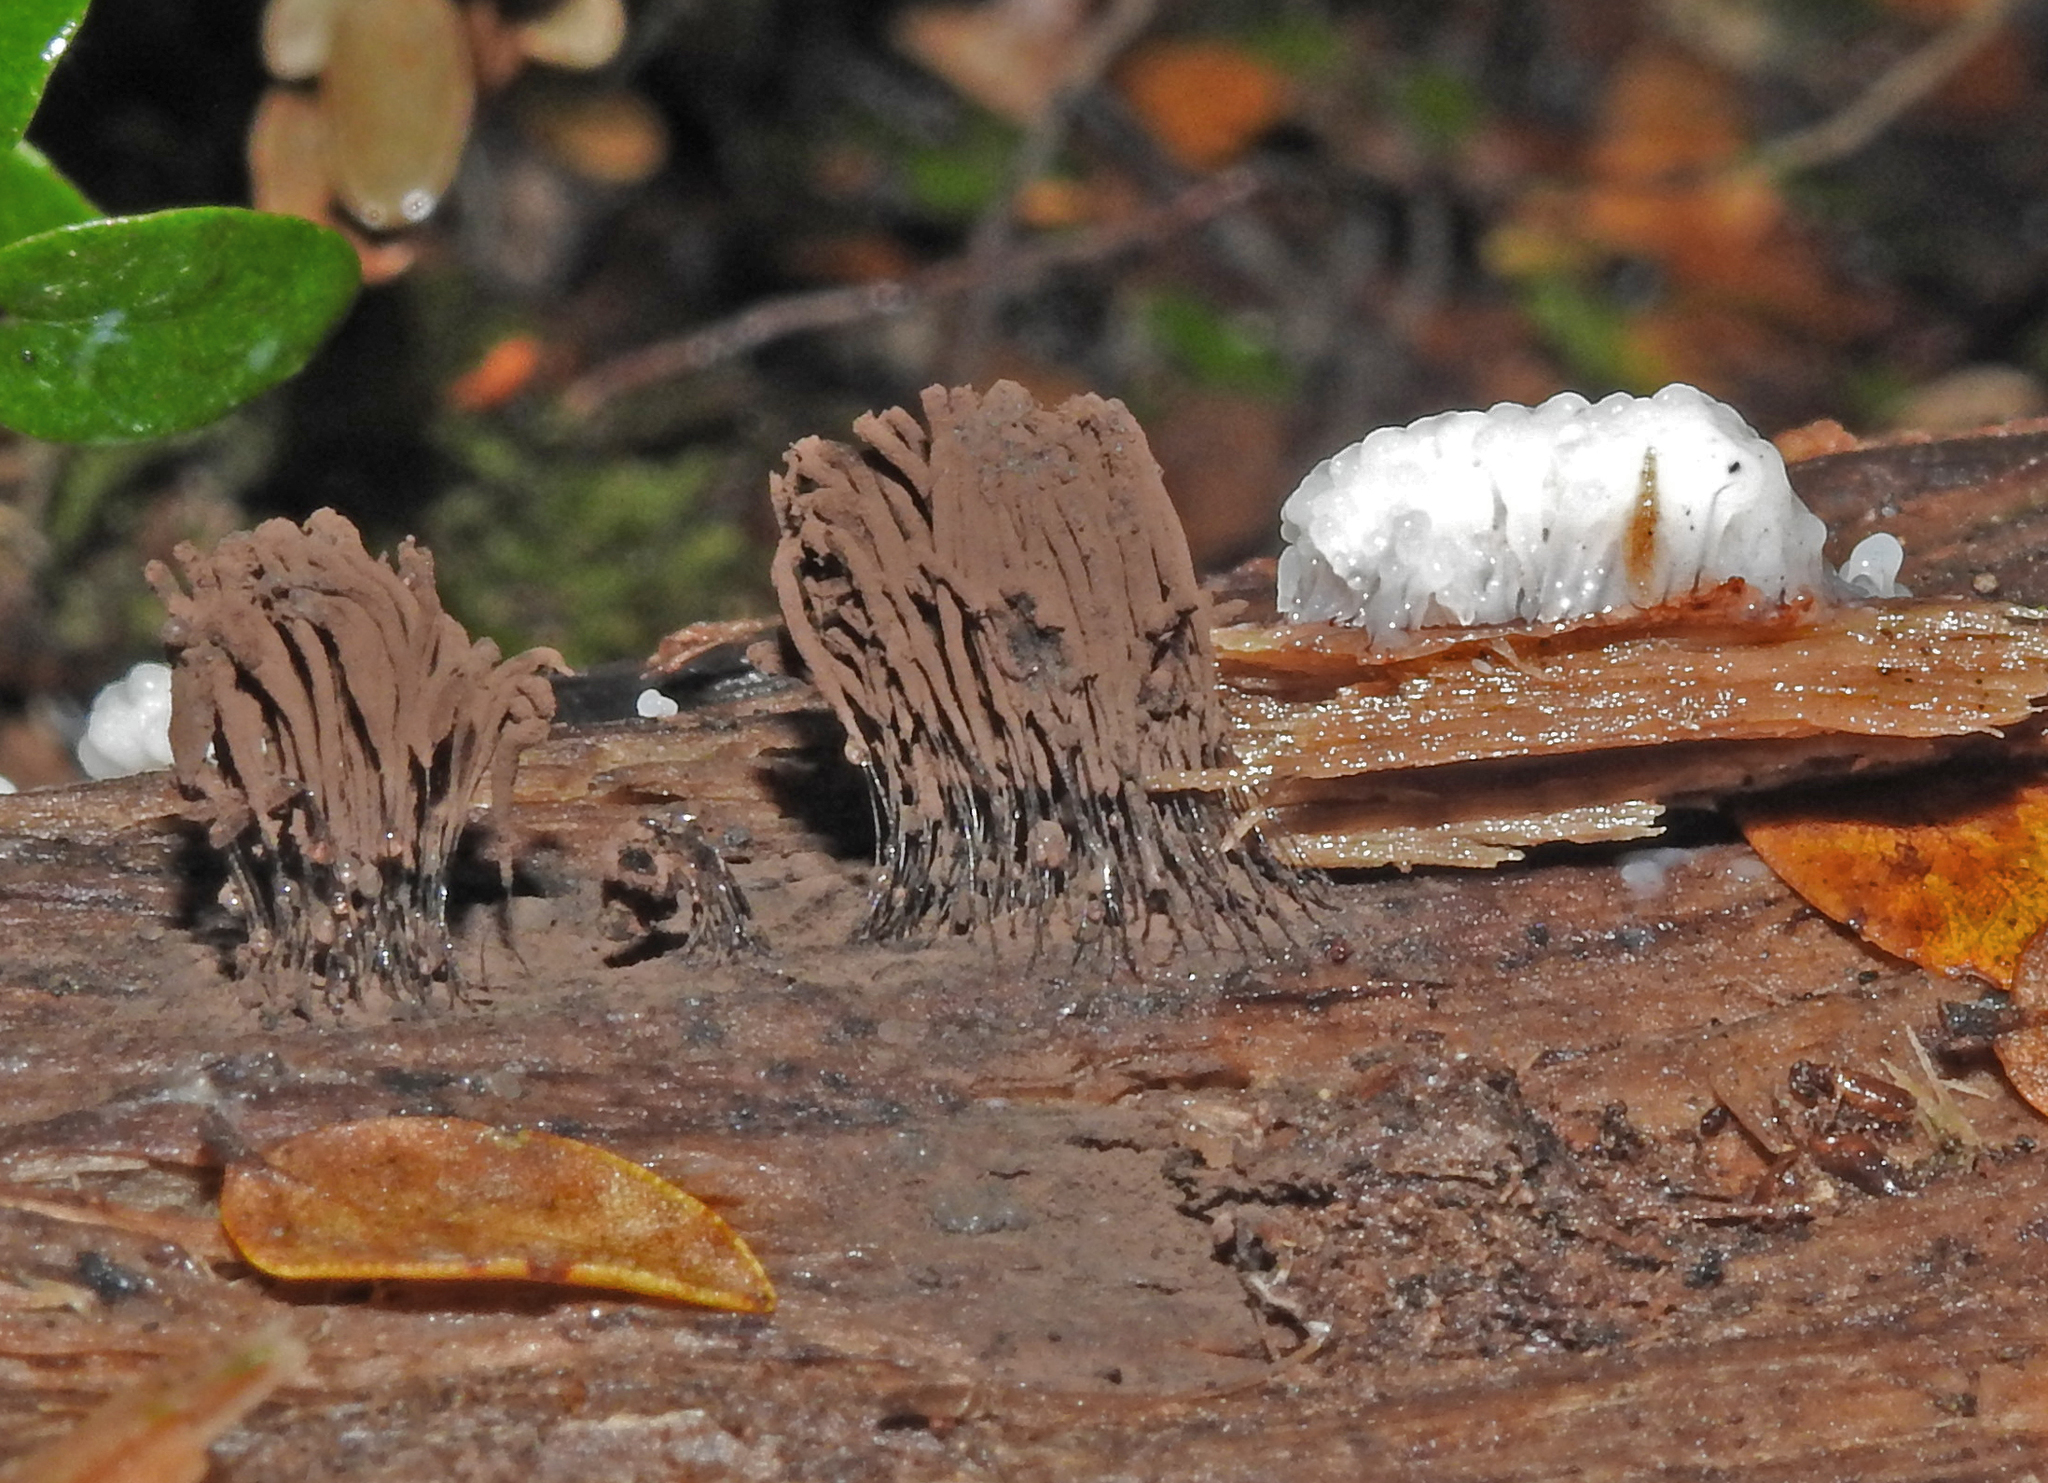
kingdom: Protozoa
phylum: Mycetozoa
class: Myxomycetes
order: Stemonitidales
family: Stemonitidaceae
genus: Stemonitis
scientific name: Stemonitis fusca
